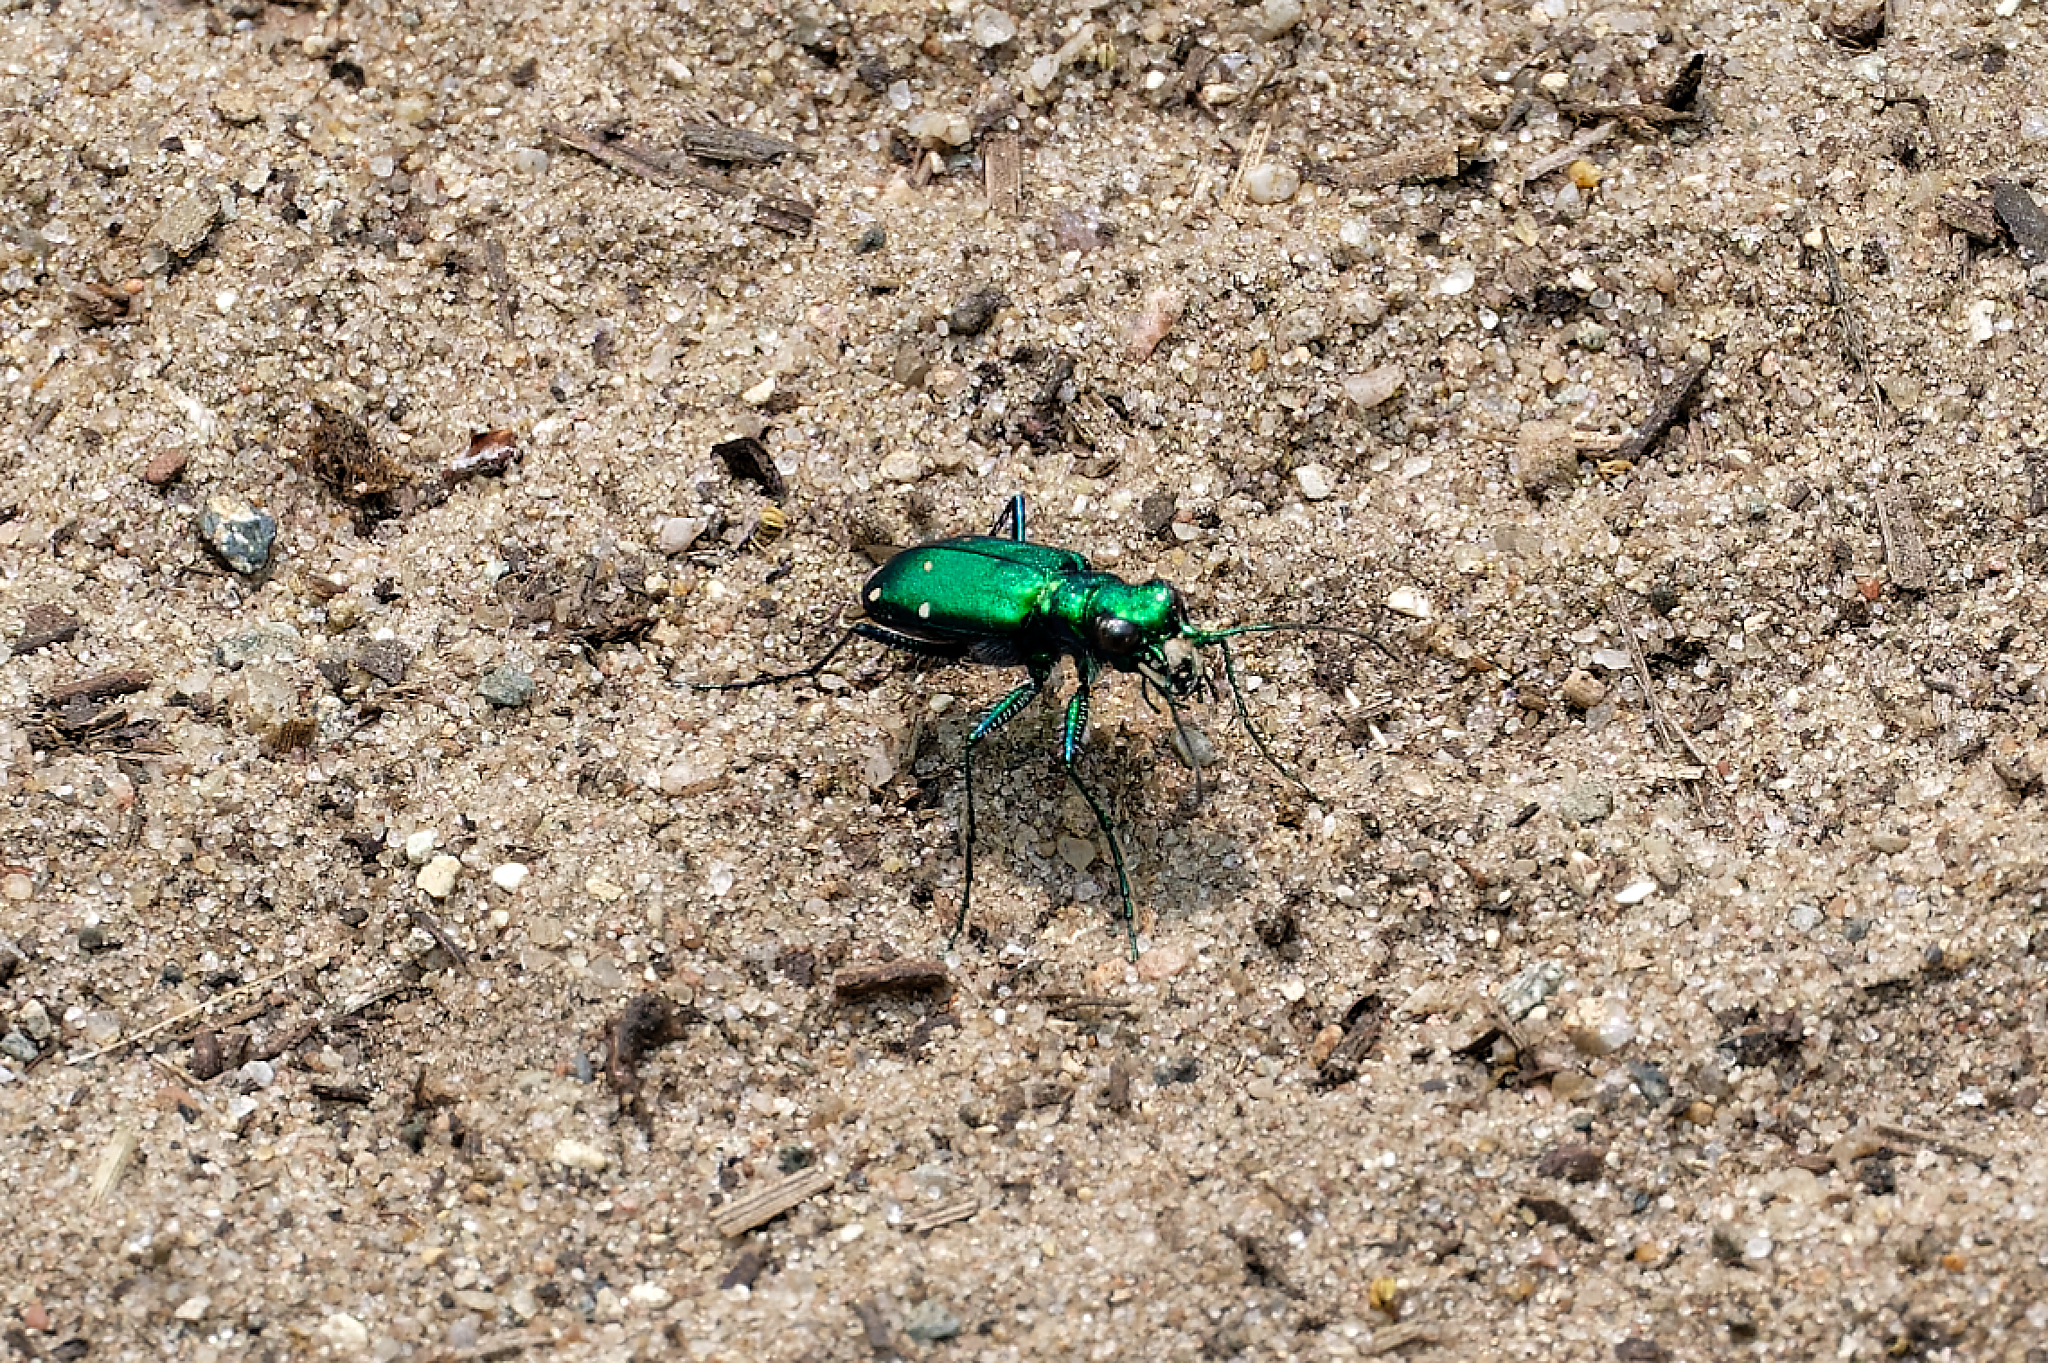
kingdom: Animalia
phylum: Arthropoda
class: Insecta
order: Coleoptera
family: Carabidae
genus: Cicindela
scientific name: Cicindela sexguttata
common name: Six-spotted tiger beetle
